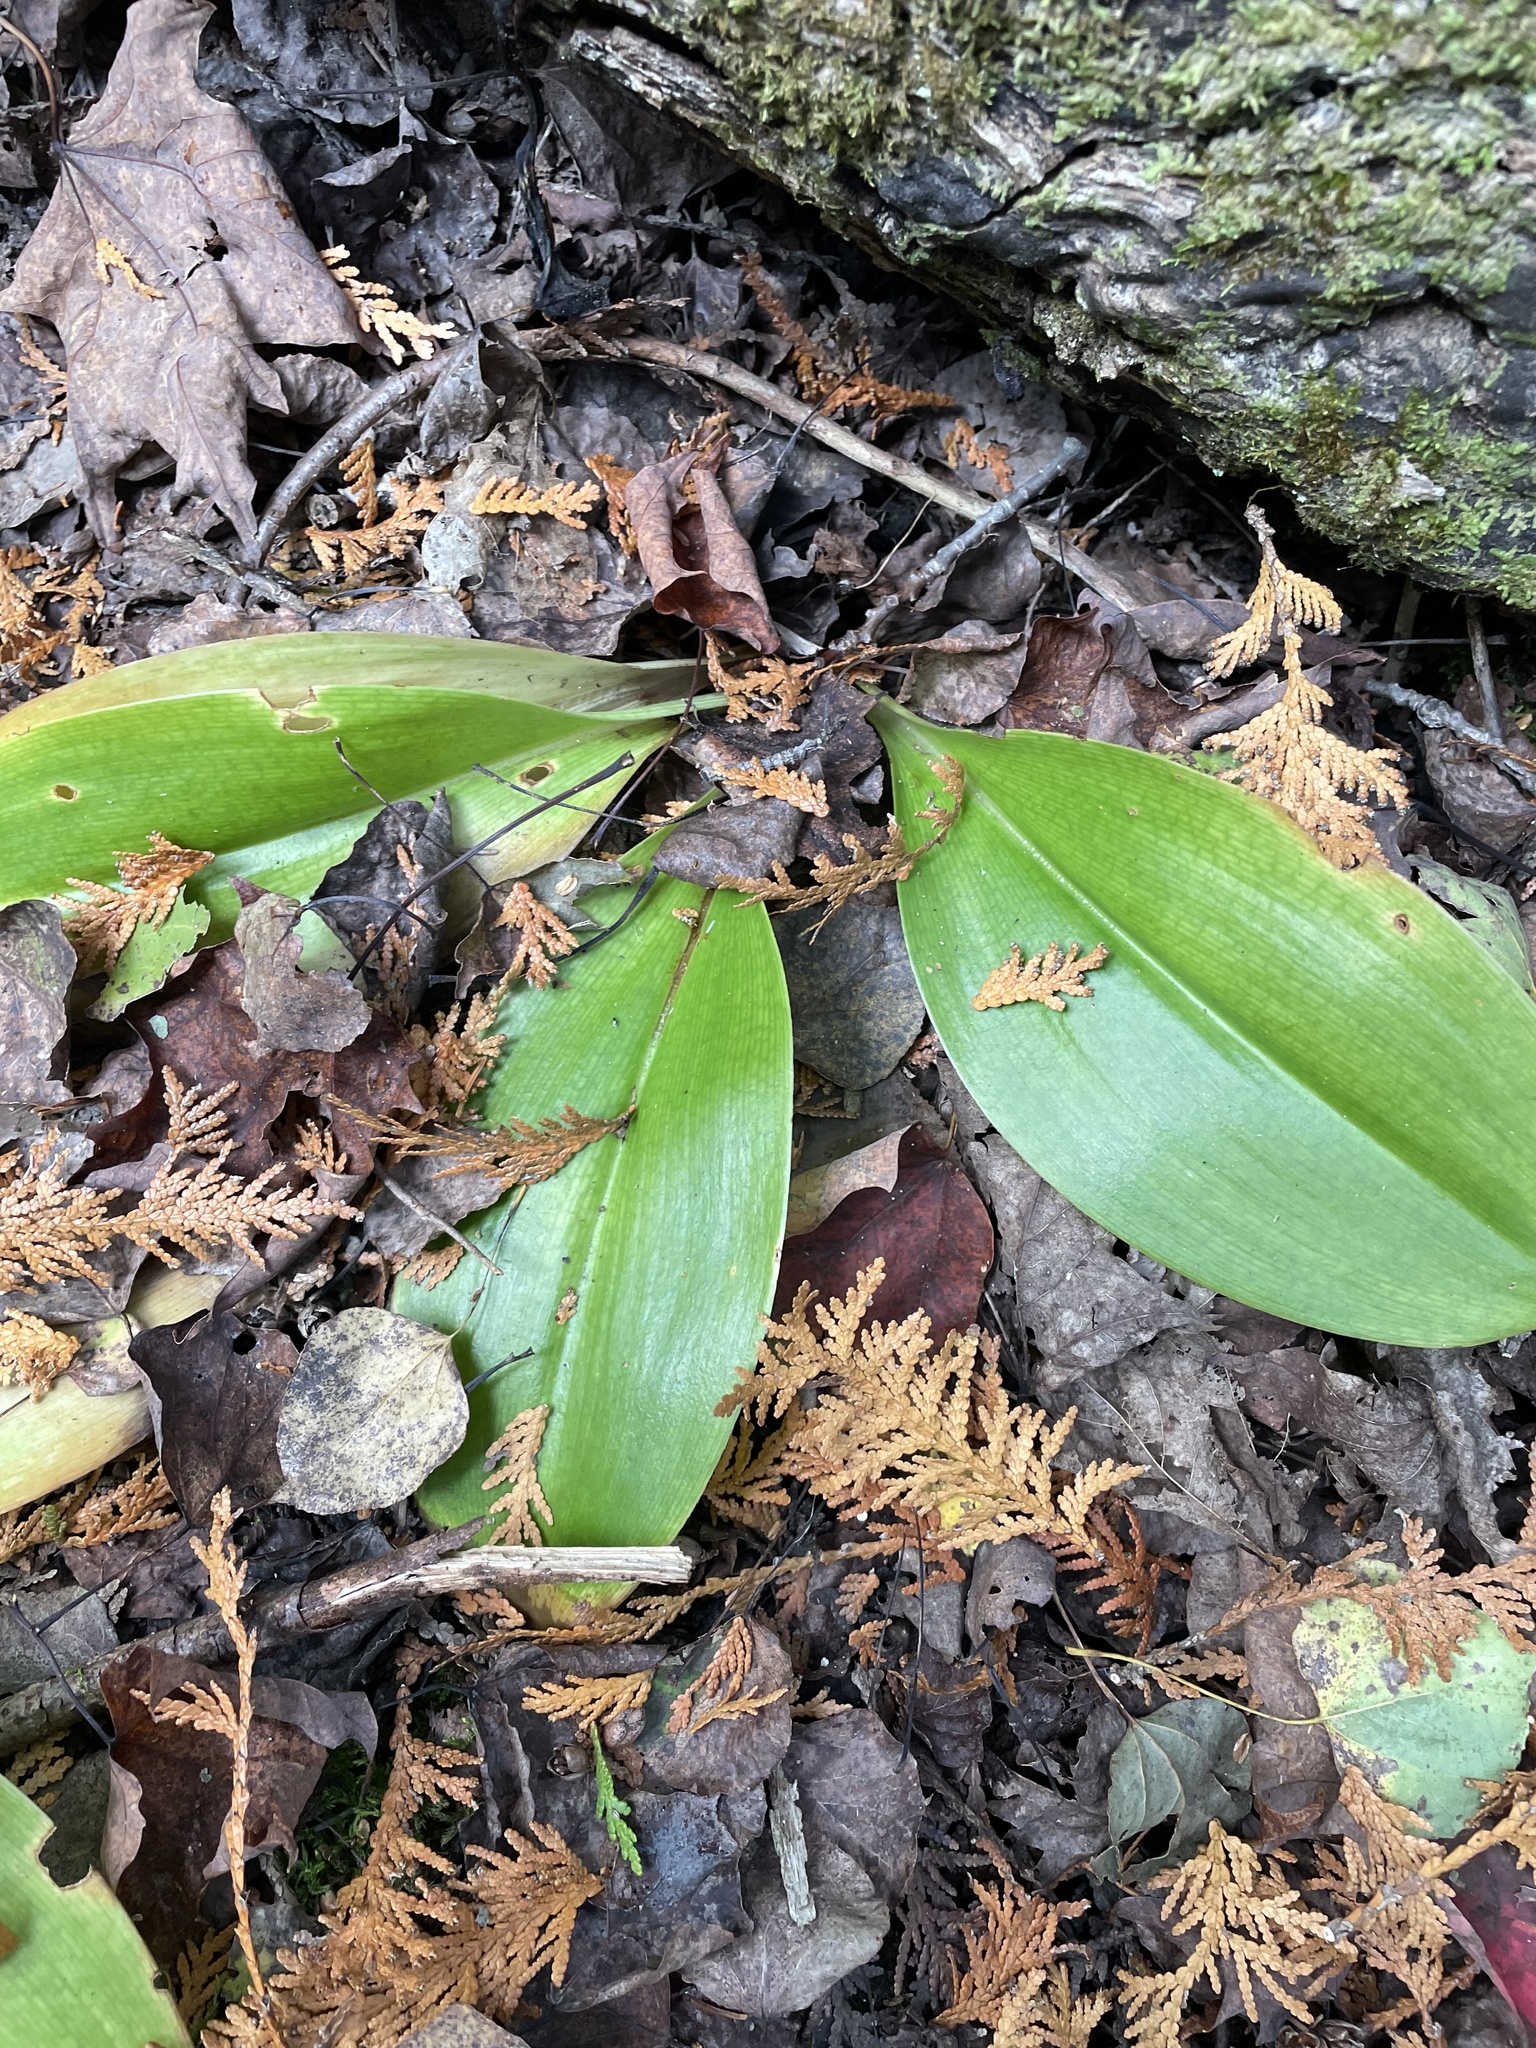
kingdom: Plantae
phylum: Tracheophyta
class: Liliopsida
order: Liliales
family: Liliaceae
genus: Clintonia
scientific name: Clintonia borealis
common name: Yellow clintonia
